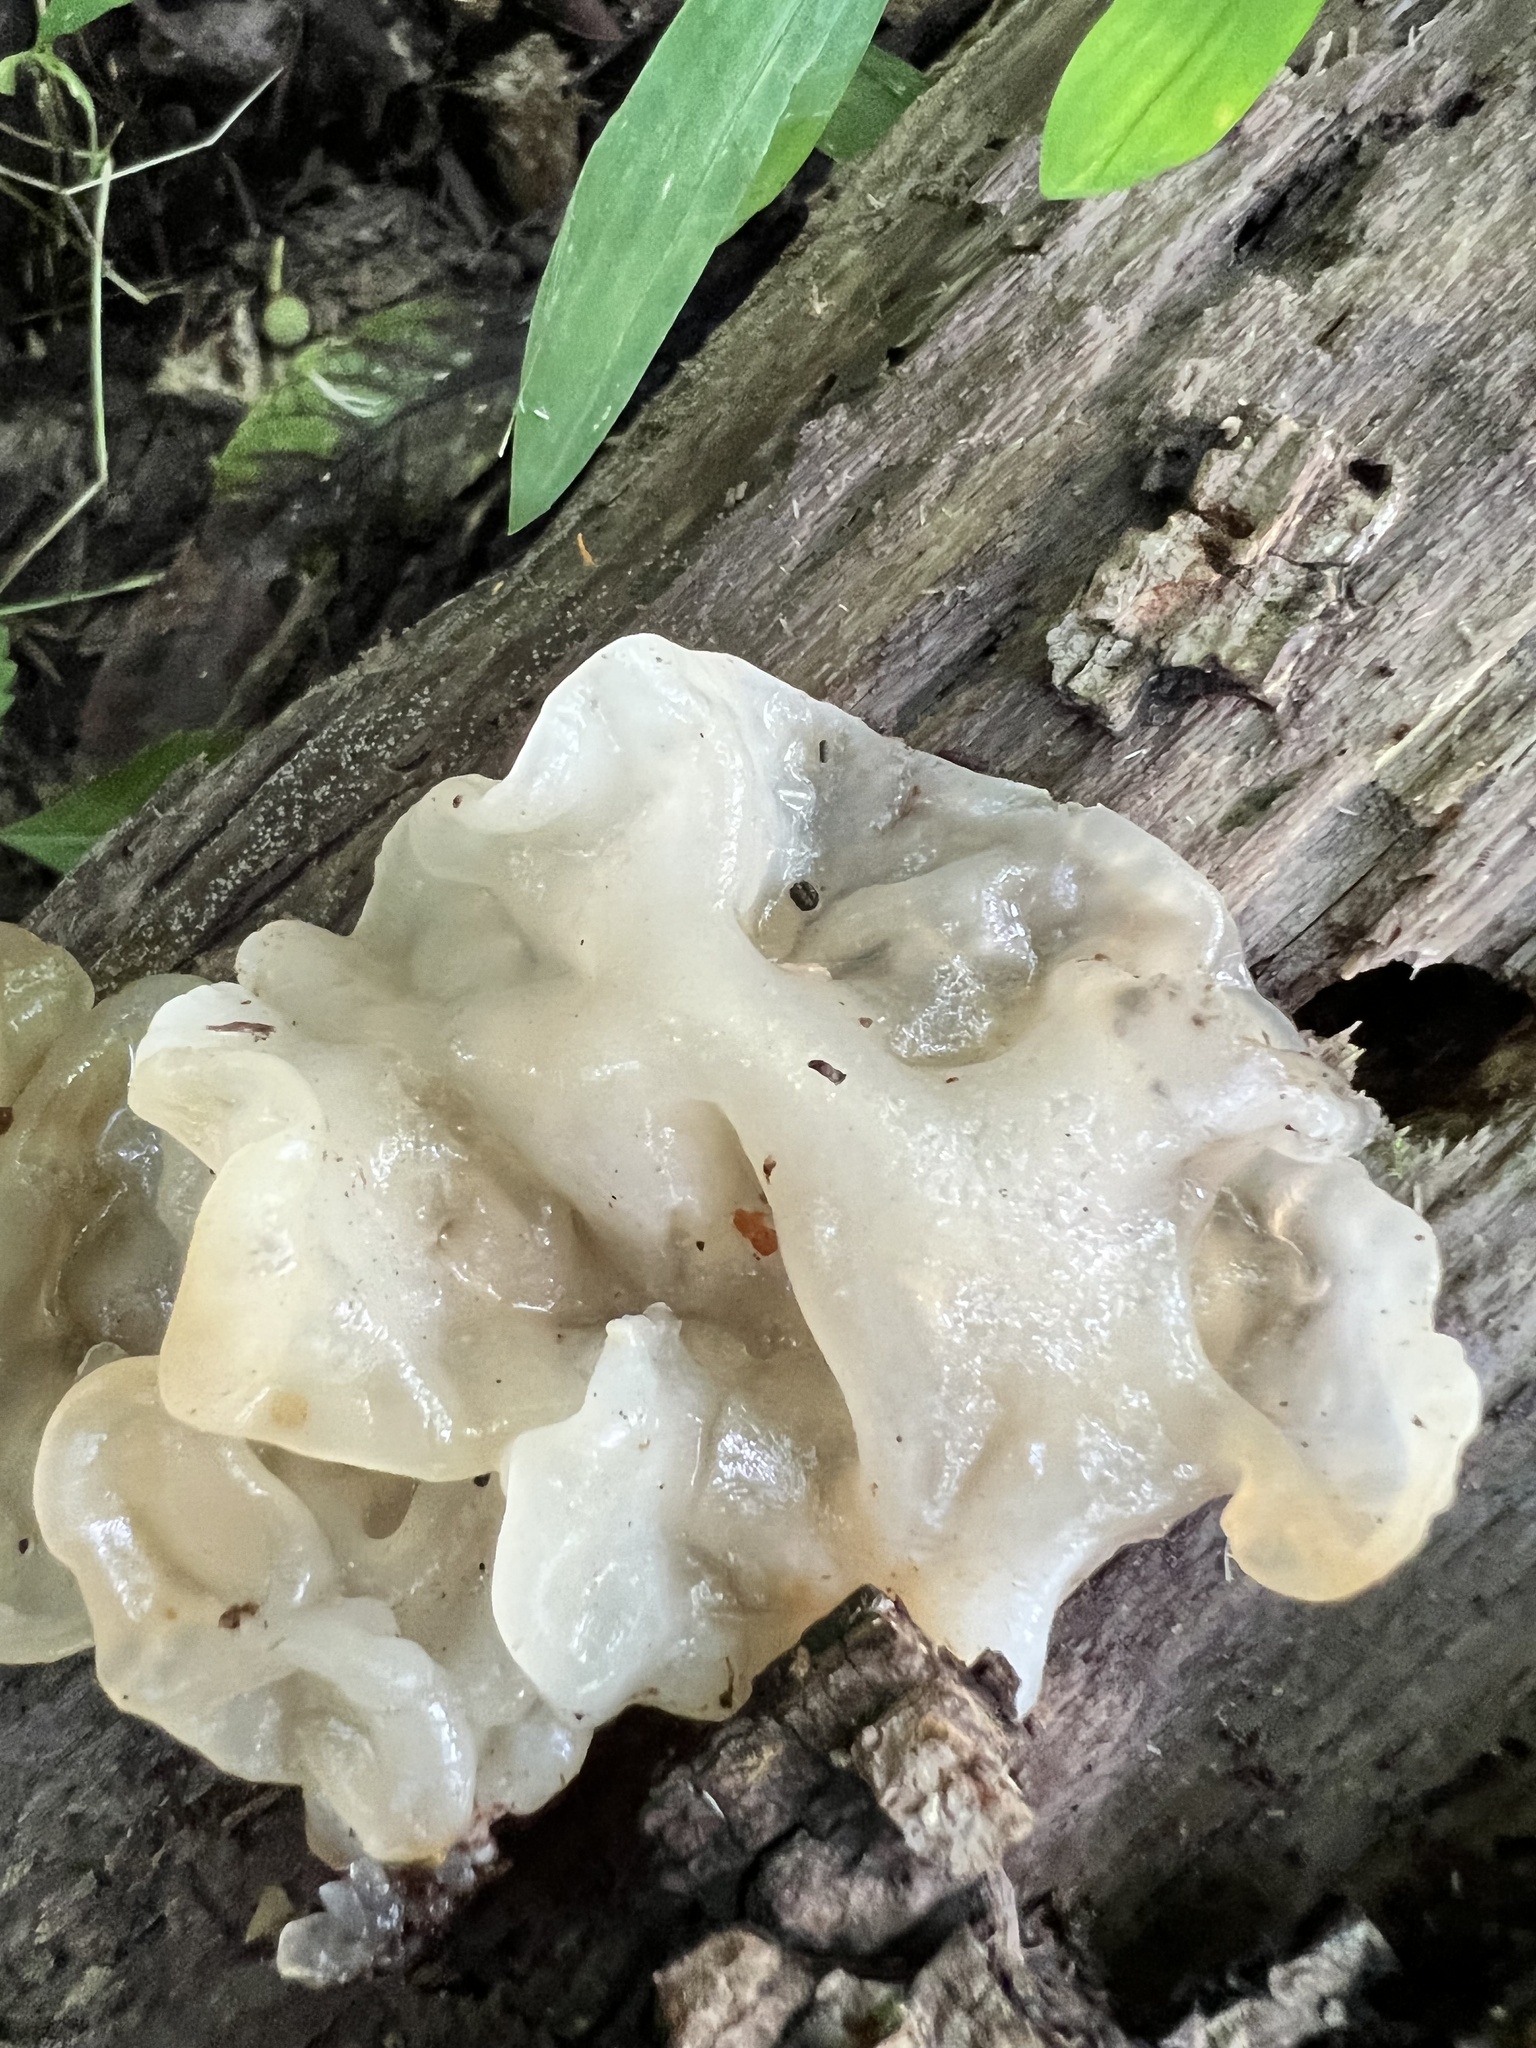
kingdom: Fungi
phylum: Basidiomycota
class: Agaricomycetes
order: Auriculariales
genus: Ductifera
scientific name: Ductifera pululahuana
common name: White jelly fungus
